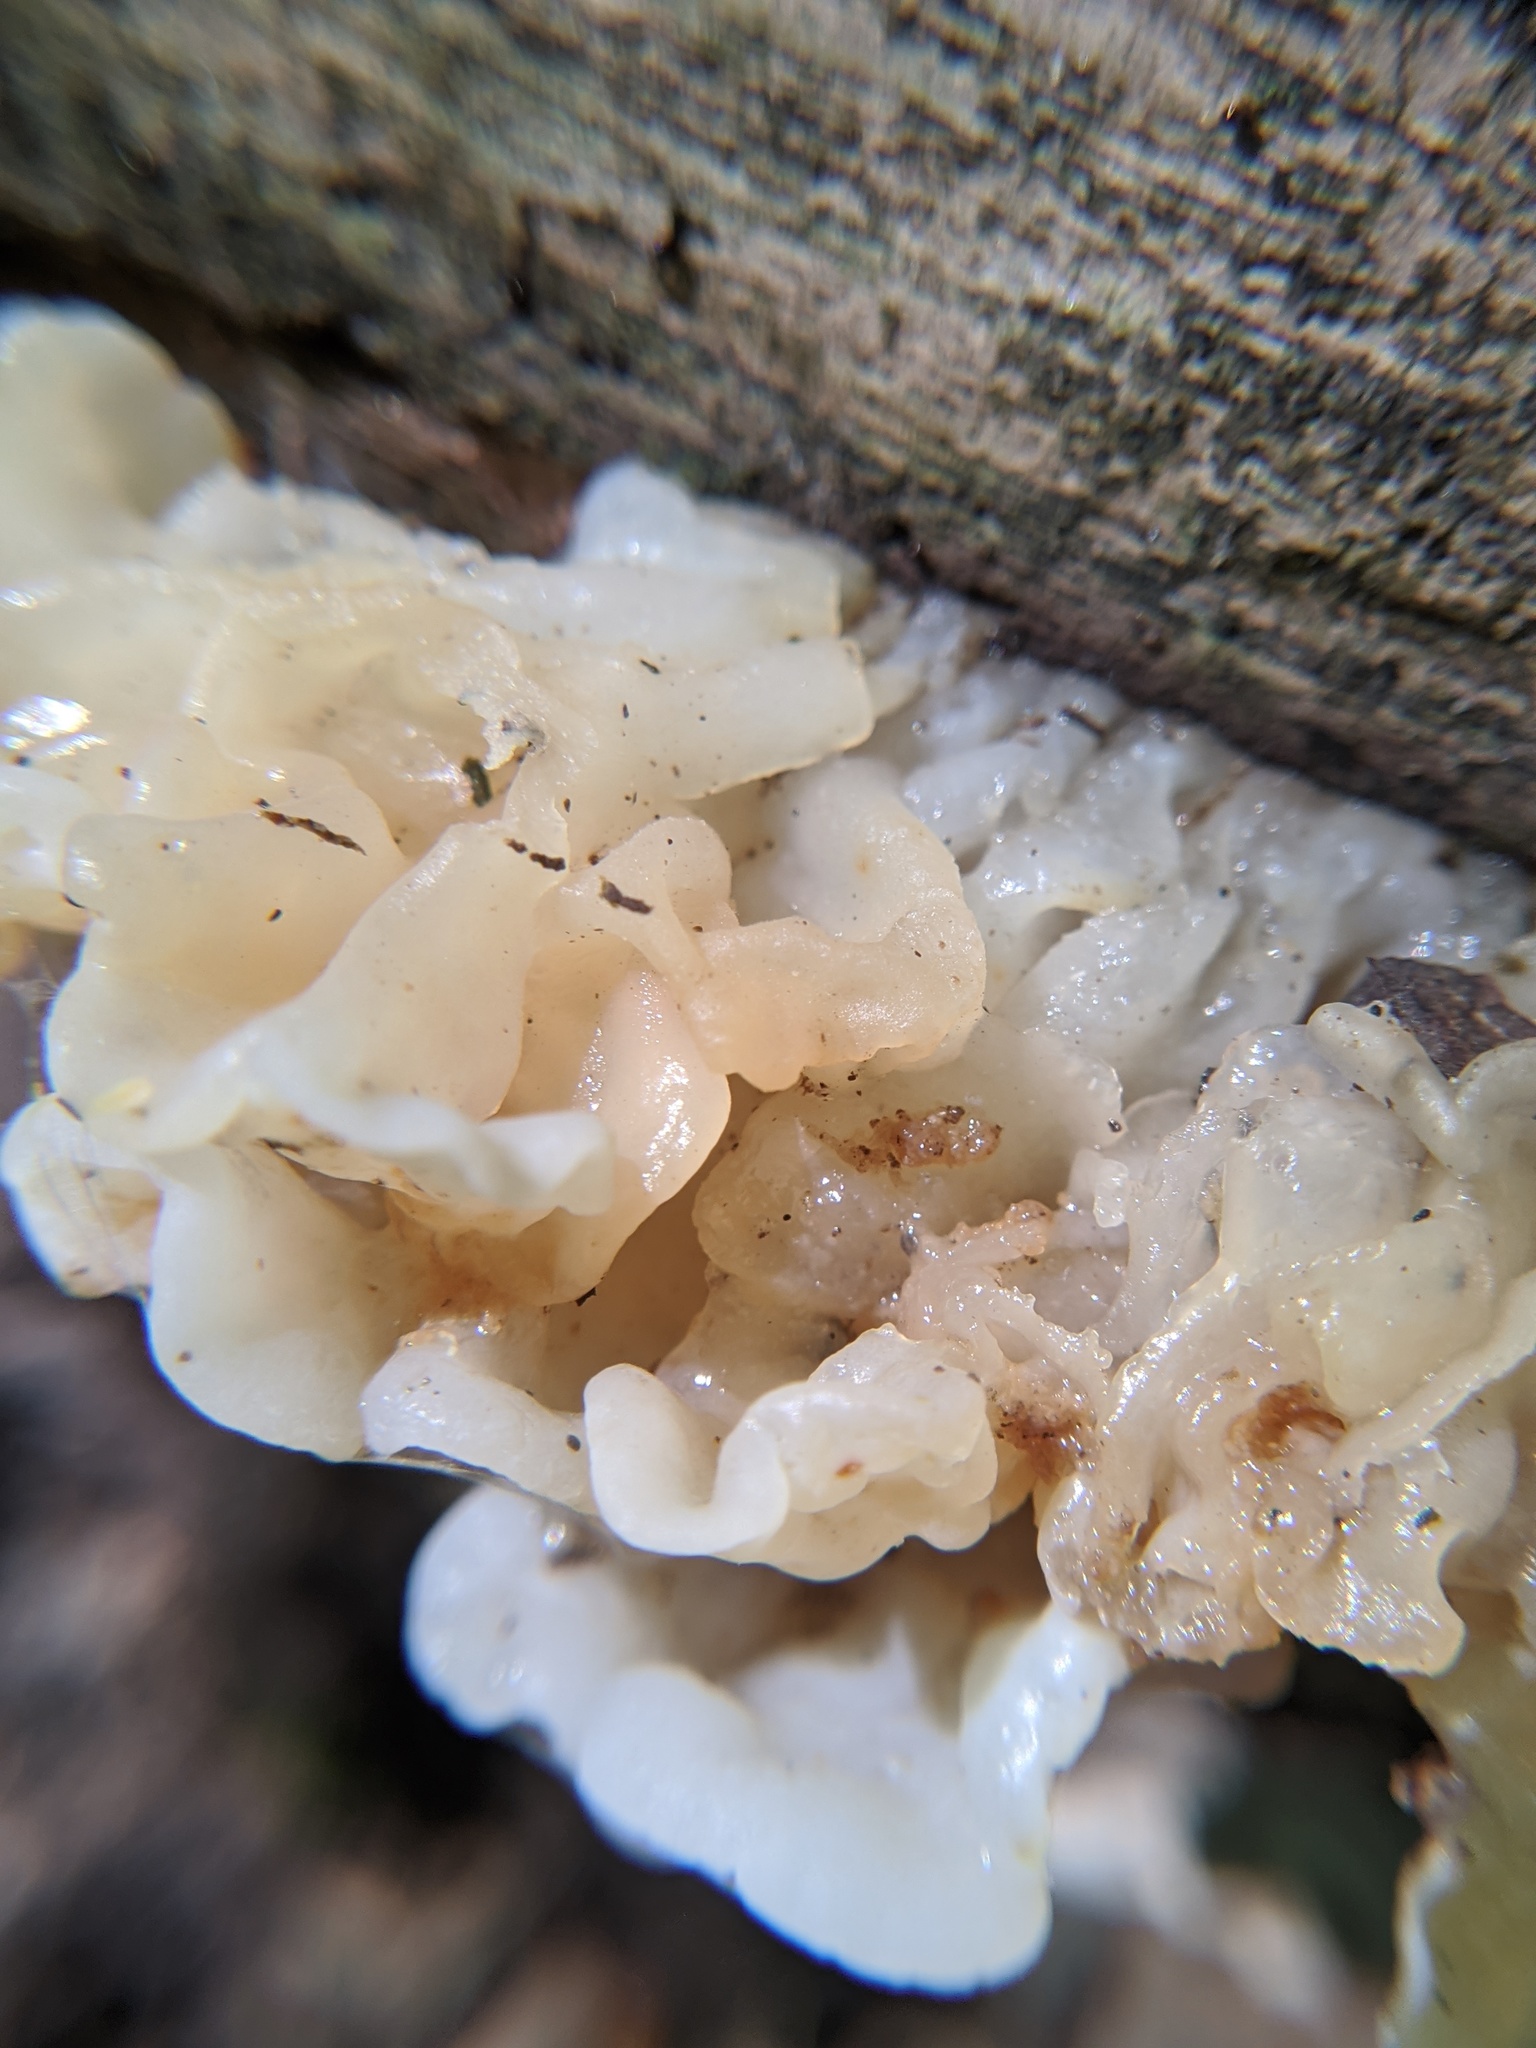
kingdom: Fungi
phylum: Basidiomycota
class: Agaricomycetes
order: Auriculariales
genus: Ductifera
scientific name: Ductifera pululahuana
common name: White jelly fungus
